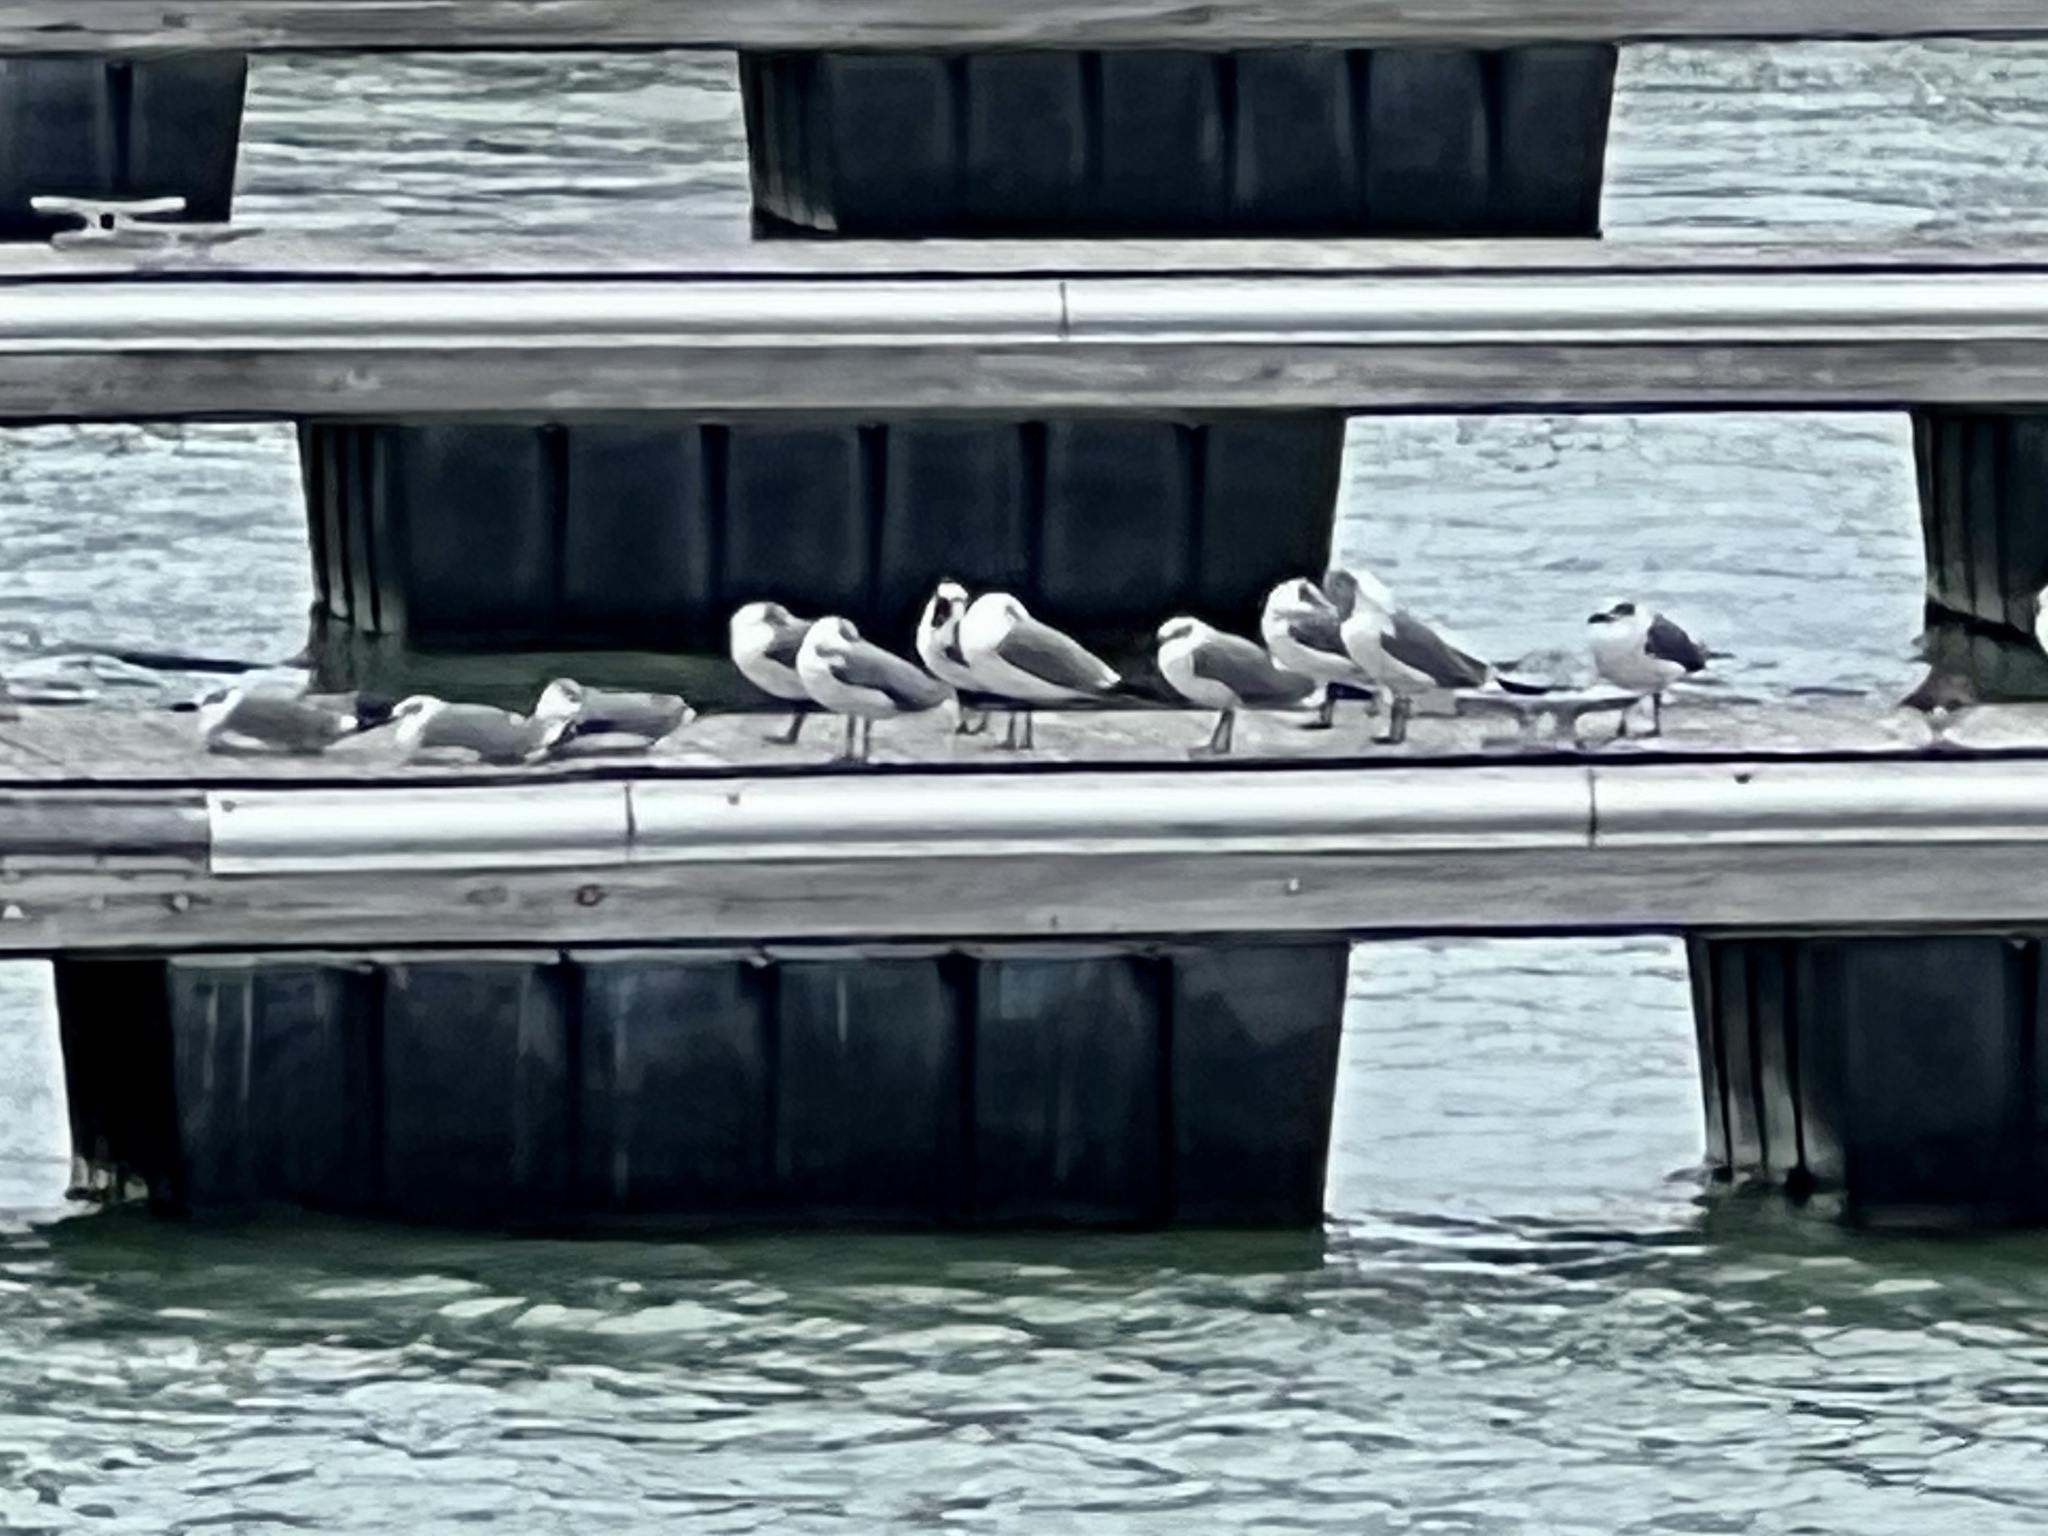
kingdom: Animalia
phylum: Chordata
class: Aves
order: Charadriiformes
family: Laridae
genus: Leucophaeus
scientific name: Leucophaeus atricilla
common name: Laughing gull
